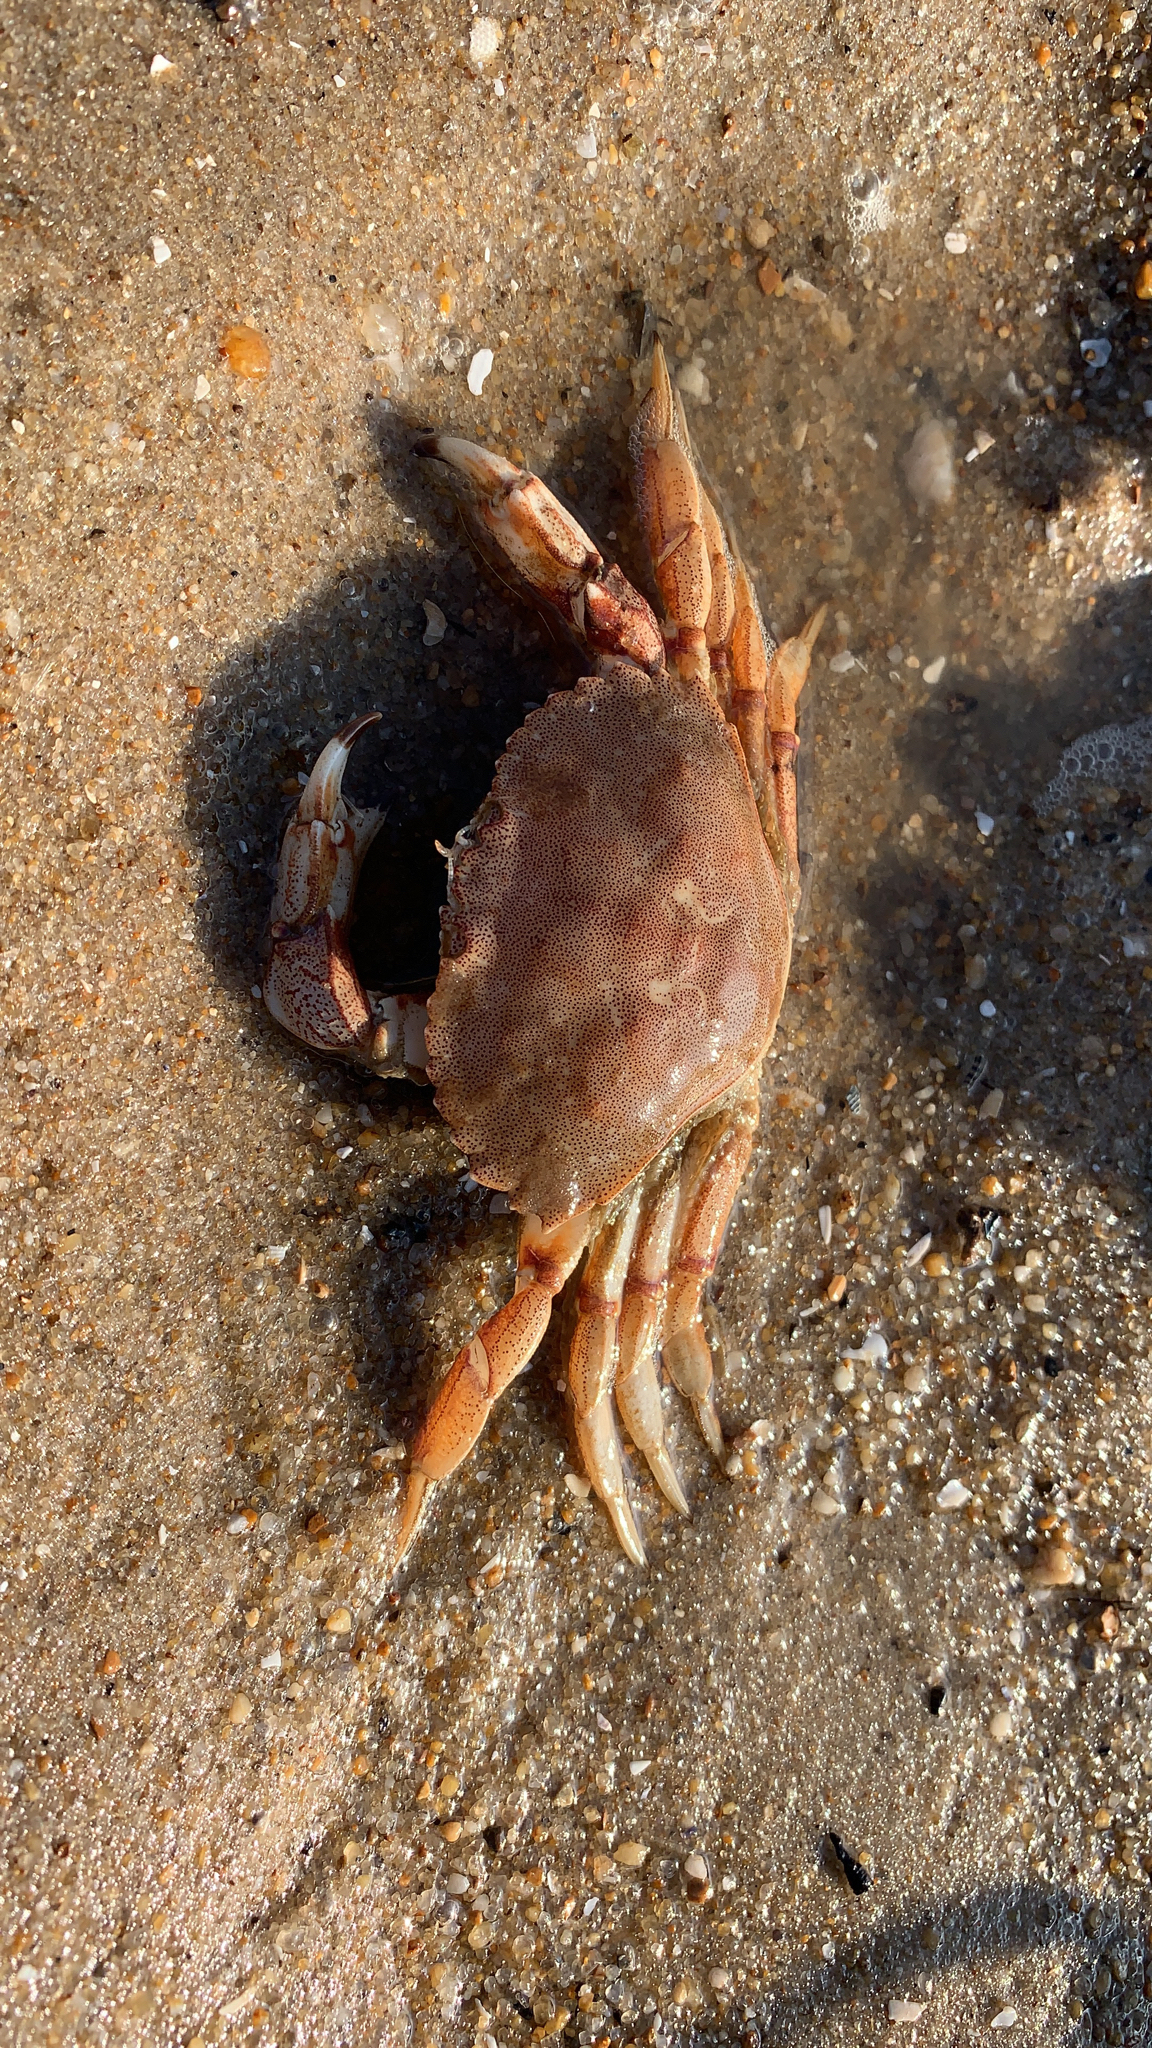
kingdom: Animalia
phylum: Arthropoda
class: Malacostraca
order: Decapoda
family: Cancridae
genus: Cancer
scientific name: Cancer irroratus
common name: Atlantic rock crab
